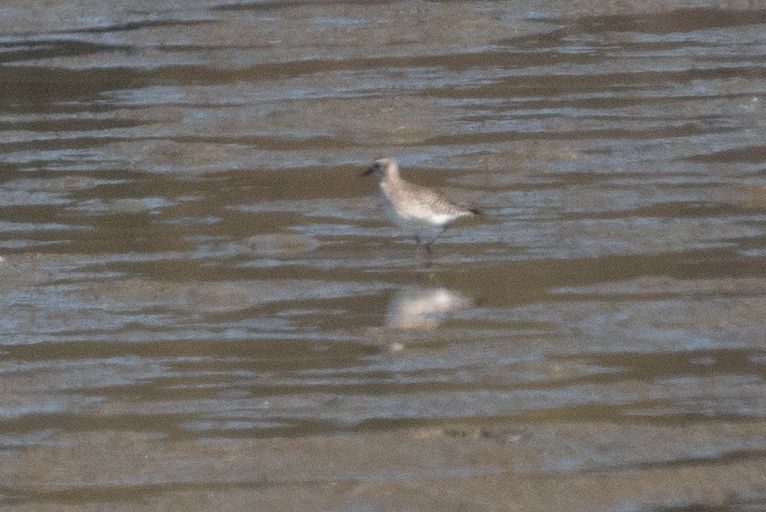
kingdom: Animalia
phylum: Chordata
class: Aves
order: Charadriiformes
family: Charadriidae
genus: Pluvialis
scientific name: Pluvialis squatarola
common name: Grey plover
